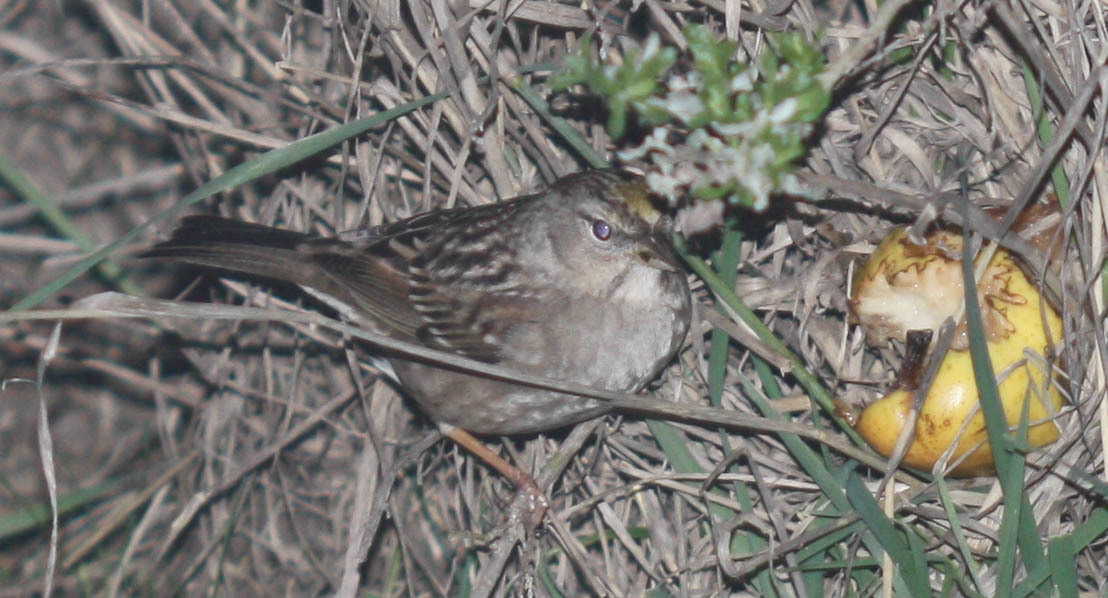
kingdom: Animalia
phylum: Chordata
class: Aves
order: Passeriformes
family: Passerellidae
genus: Zonotrichia
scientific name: Zonotrichia atricapilla
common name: Golden-crowned sparrow
